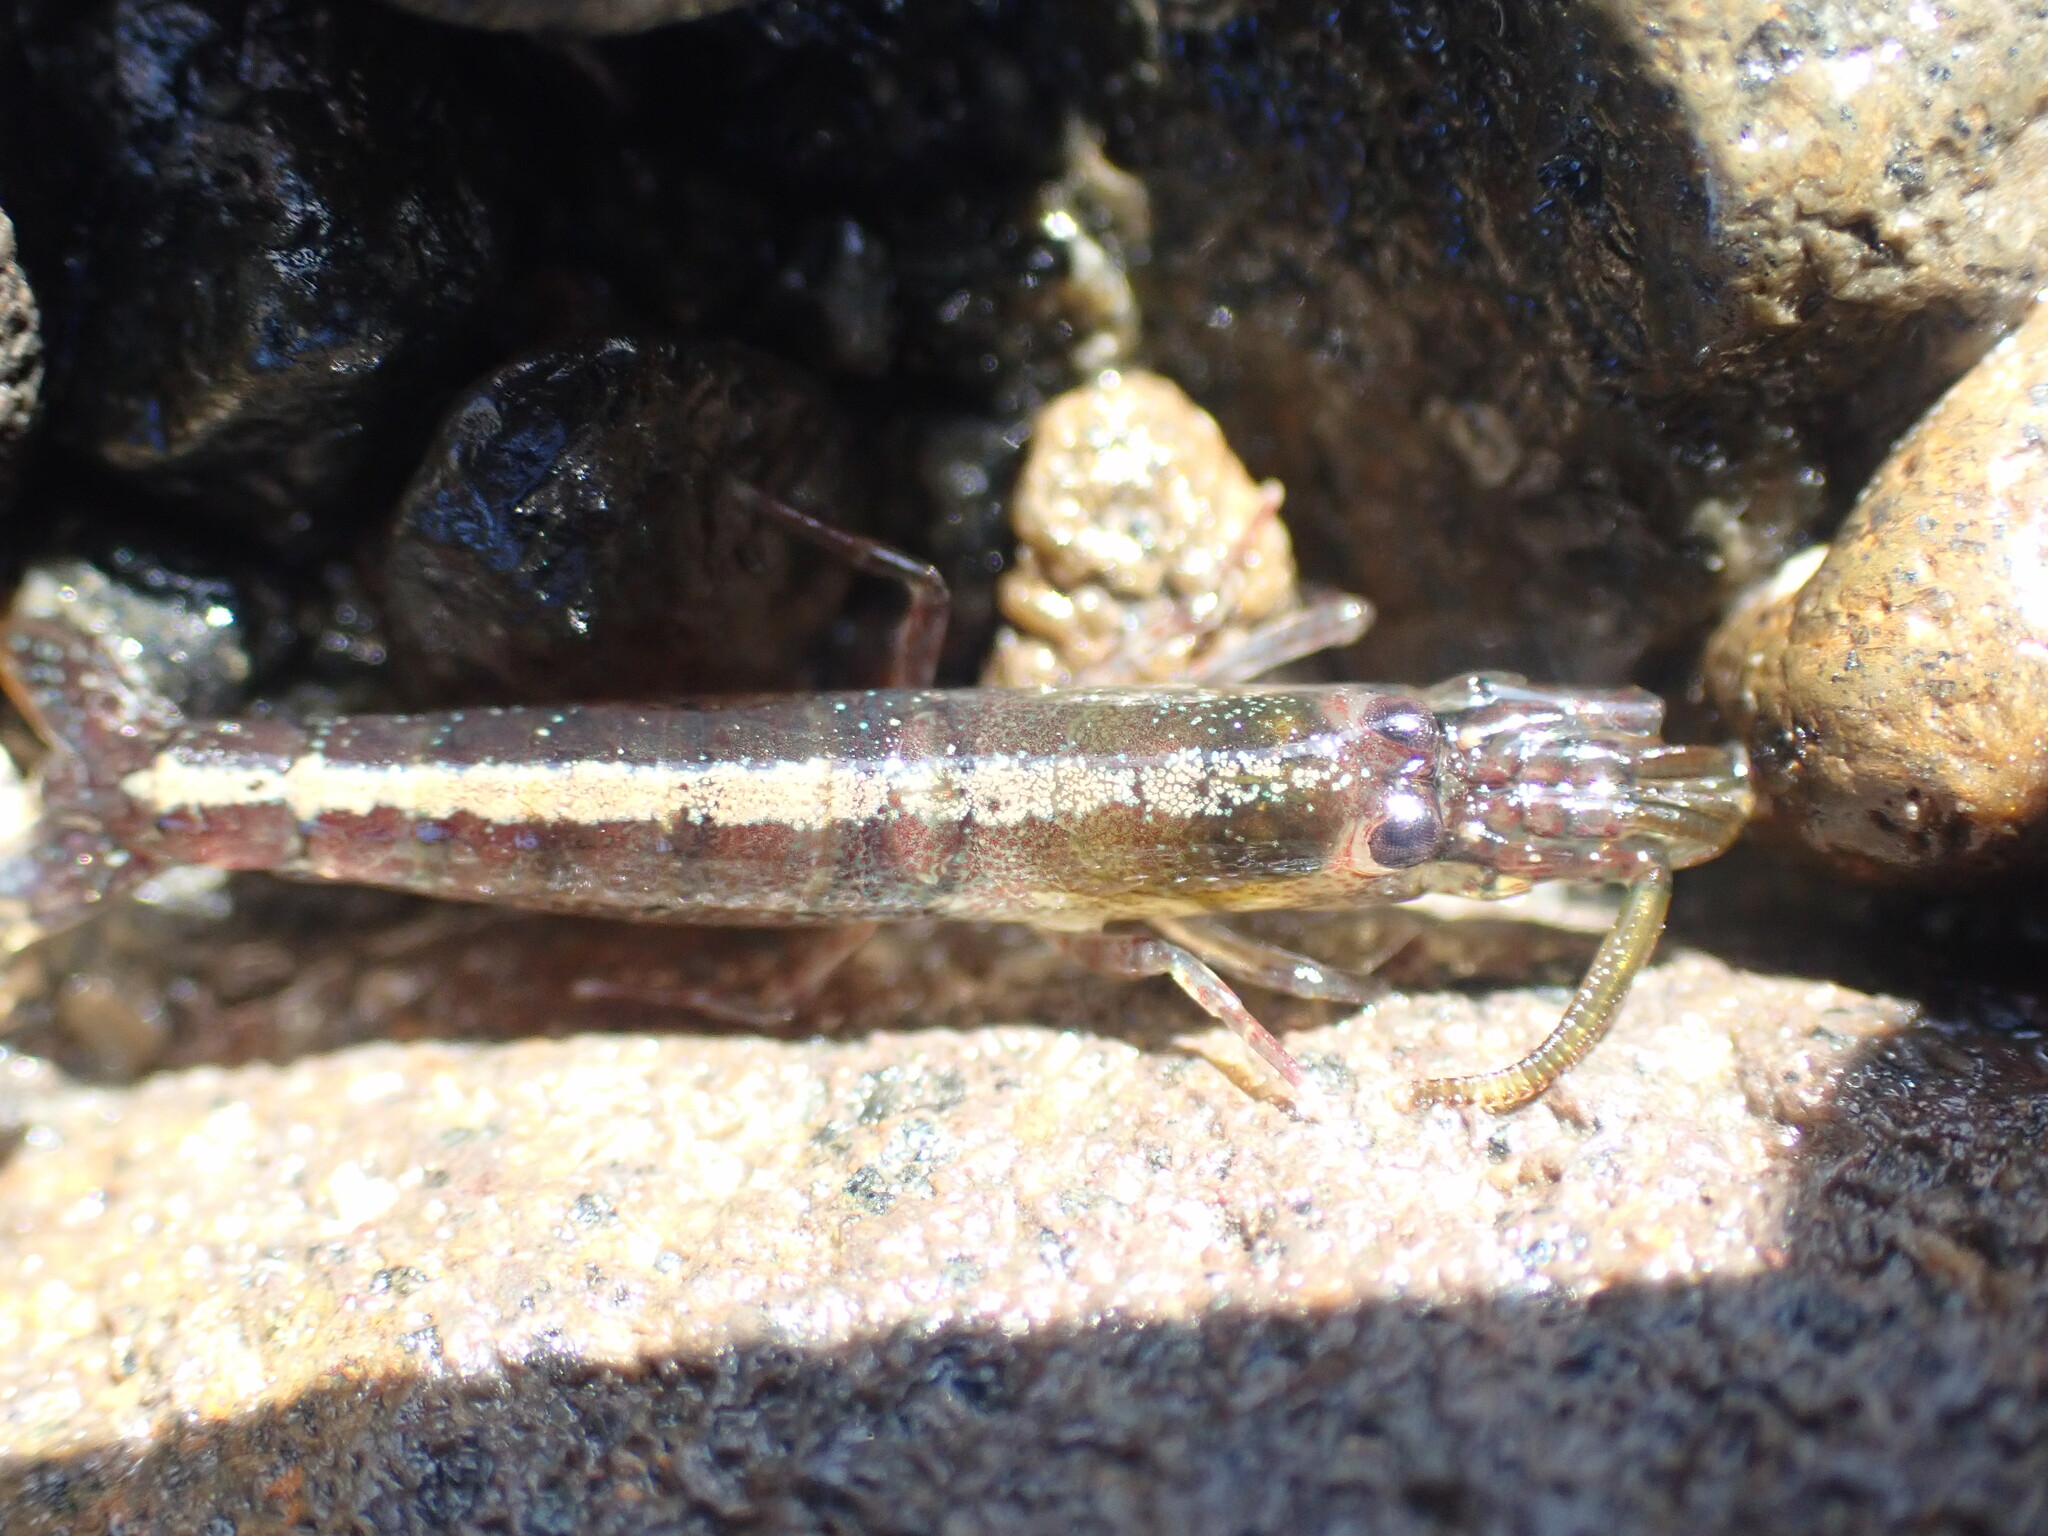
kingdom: Animalia
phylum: Arthropoda
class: Malacostraca
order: Decapoda
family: Alpheidae
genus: Betaeopsis
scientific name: Betaeopsis aequimanus
